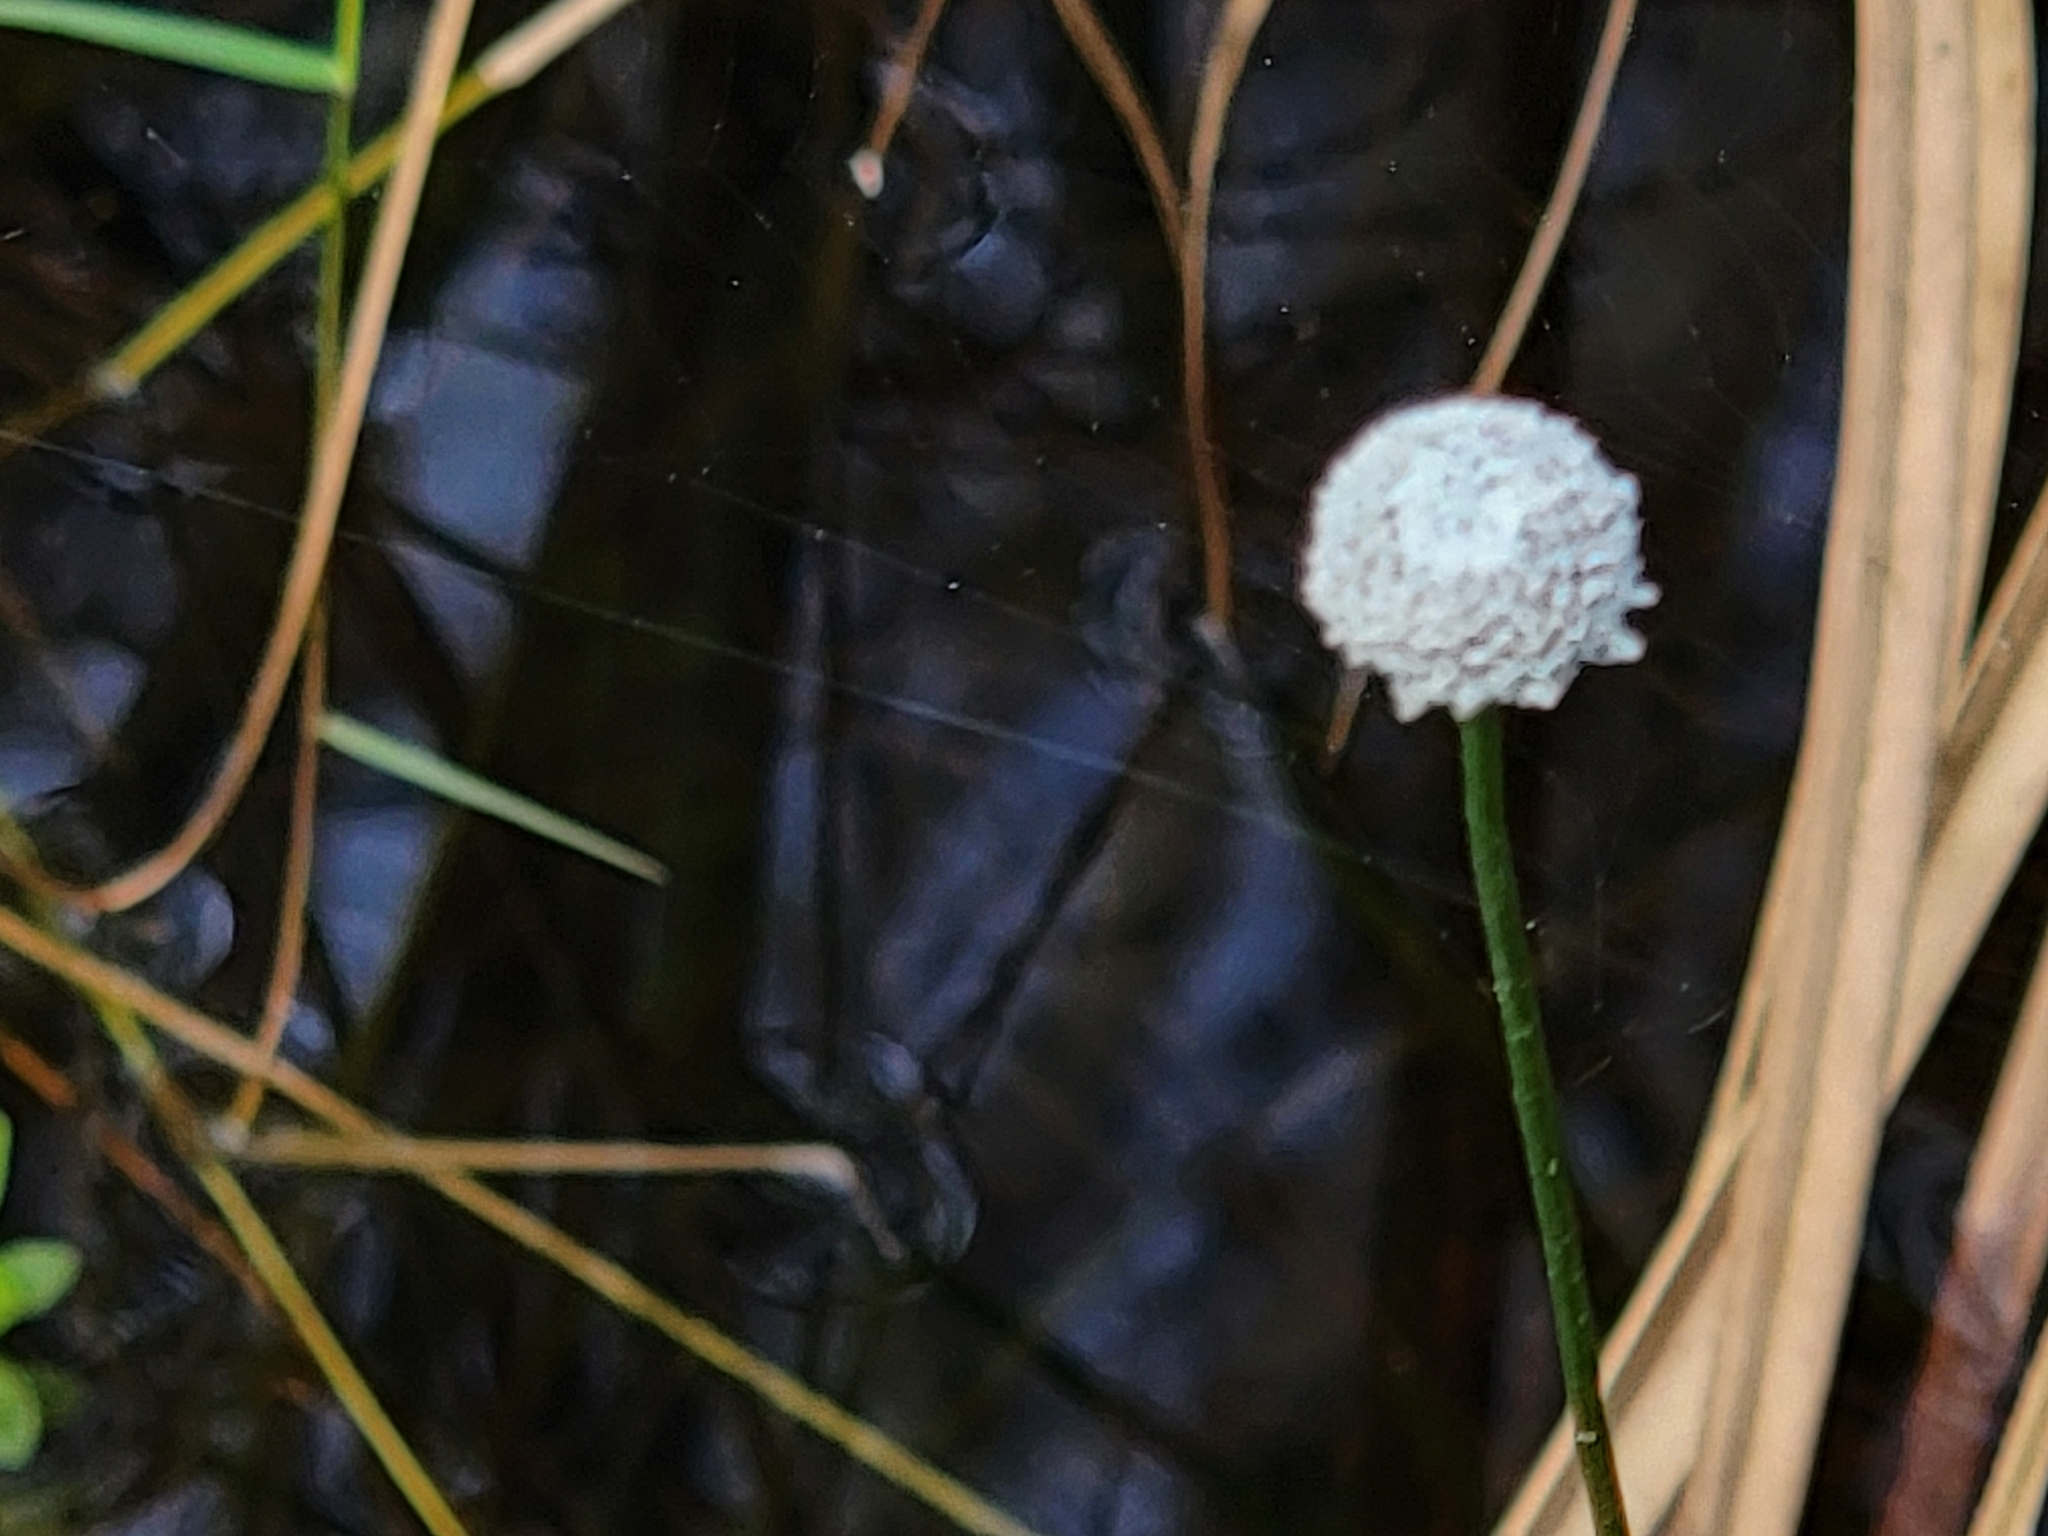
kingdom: Plantae
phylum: Tracheophyta
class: Liliopsida
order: Poales
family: Eriocaulaceae
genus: Eriocaulon
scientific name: Eriocaulon compressum
